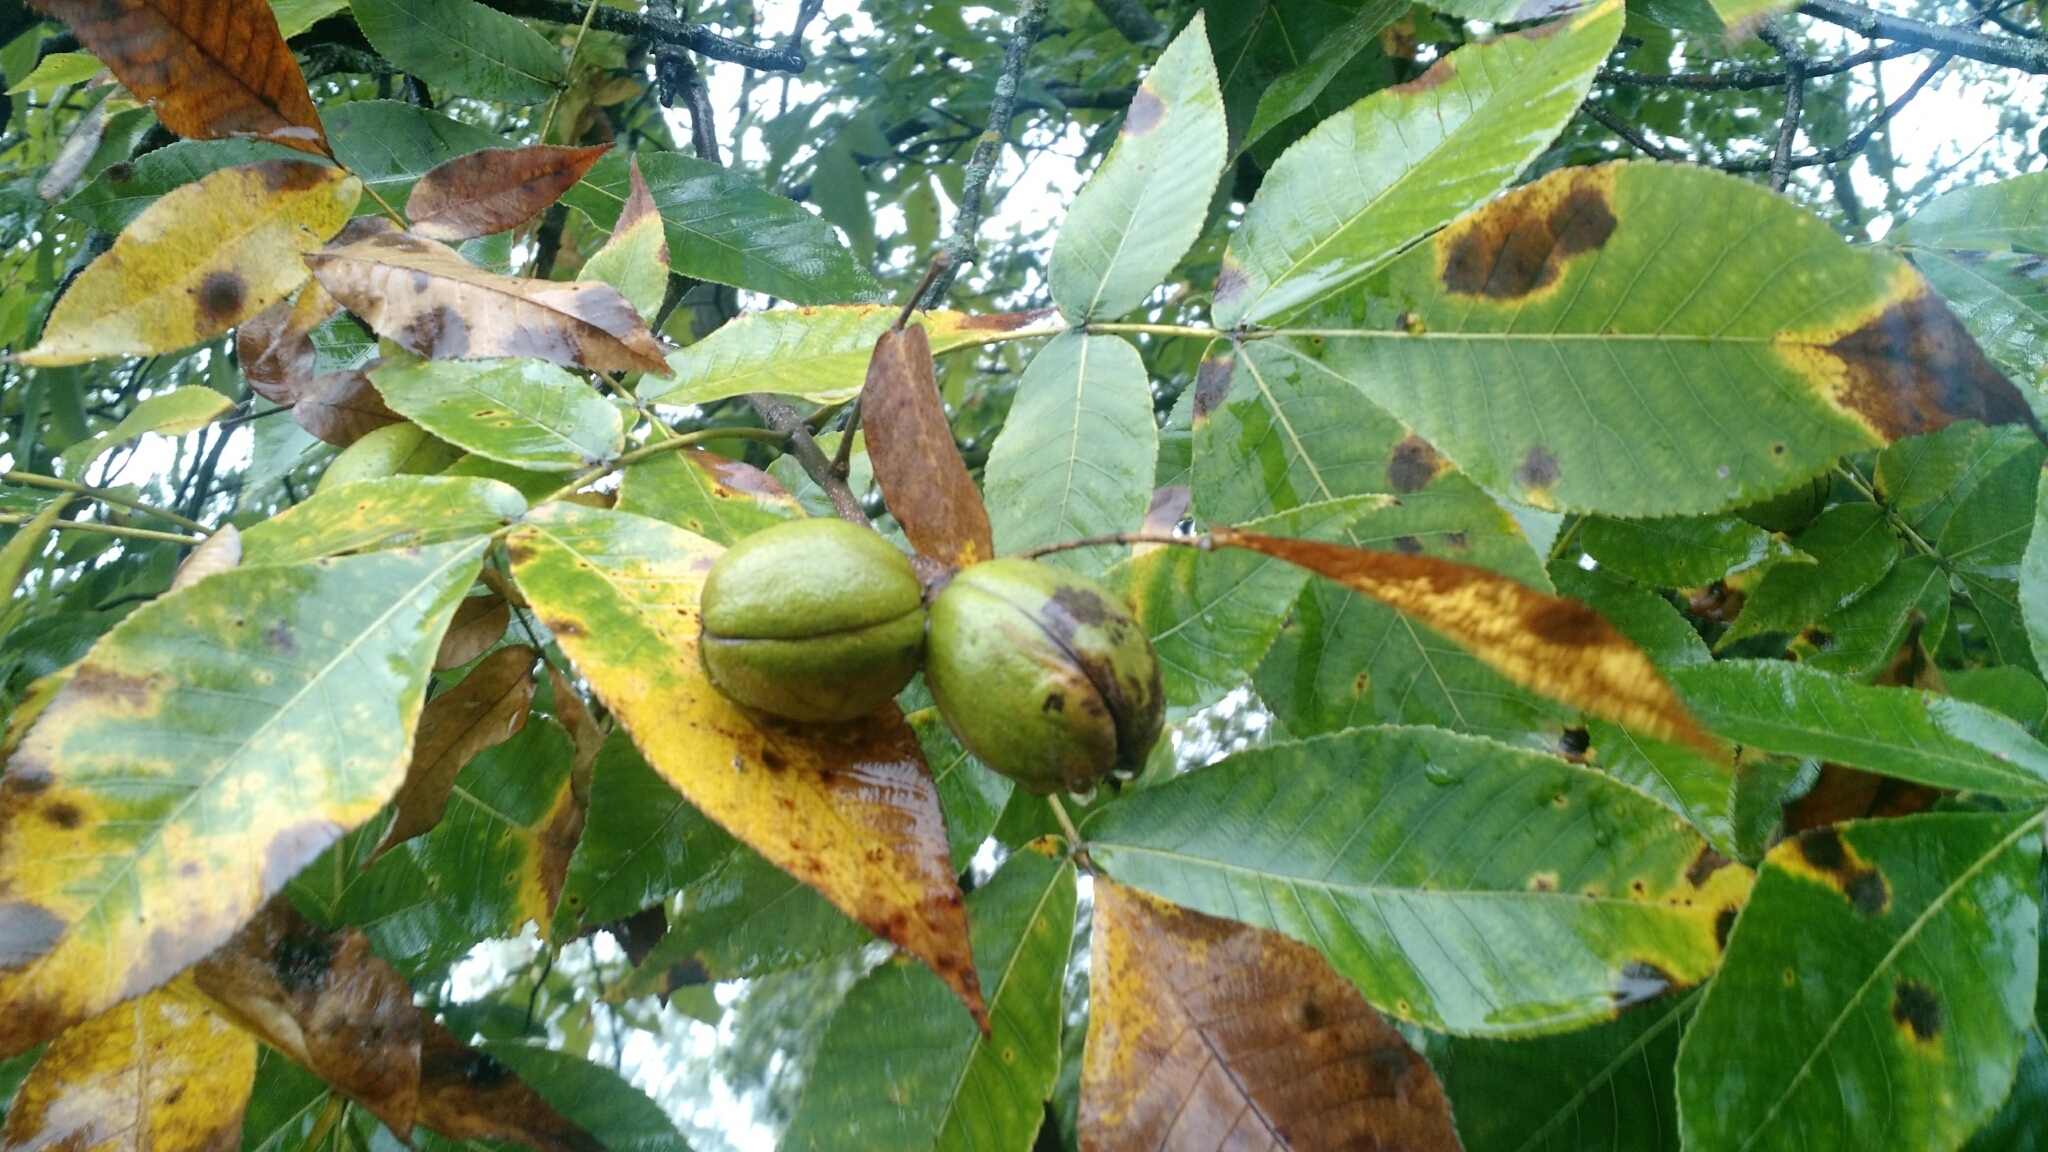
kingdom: Plantae
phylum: Tracheophyta
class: Magnoliopsida
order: Fagales
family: Juglandaceae
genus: Carya
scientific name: Carya ovata
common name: Shagbark hickory
